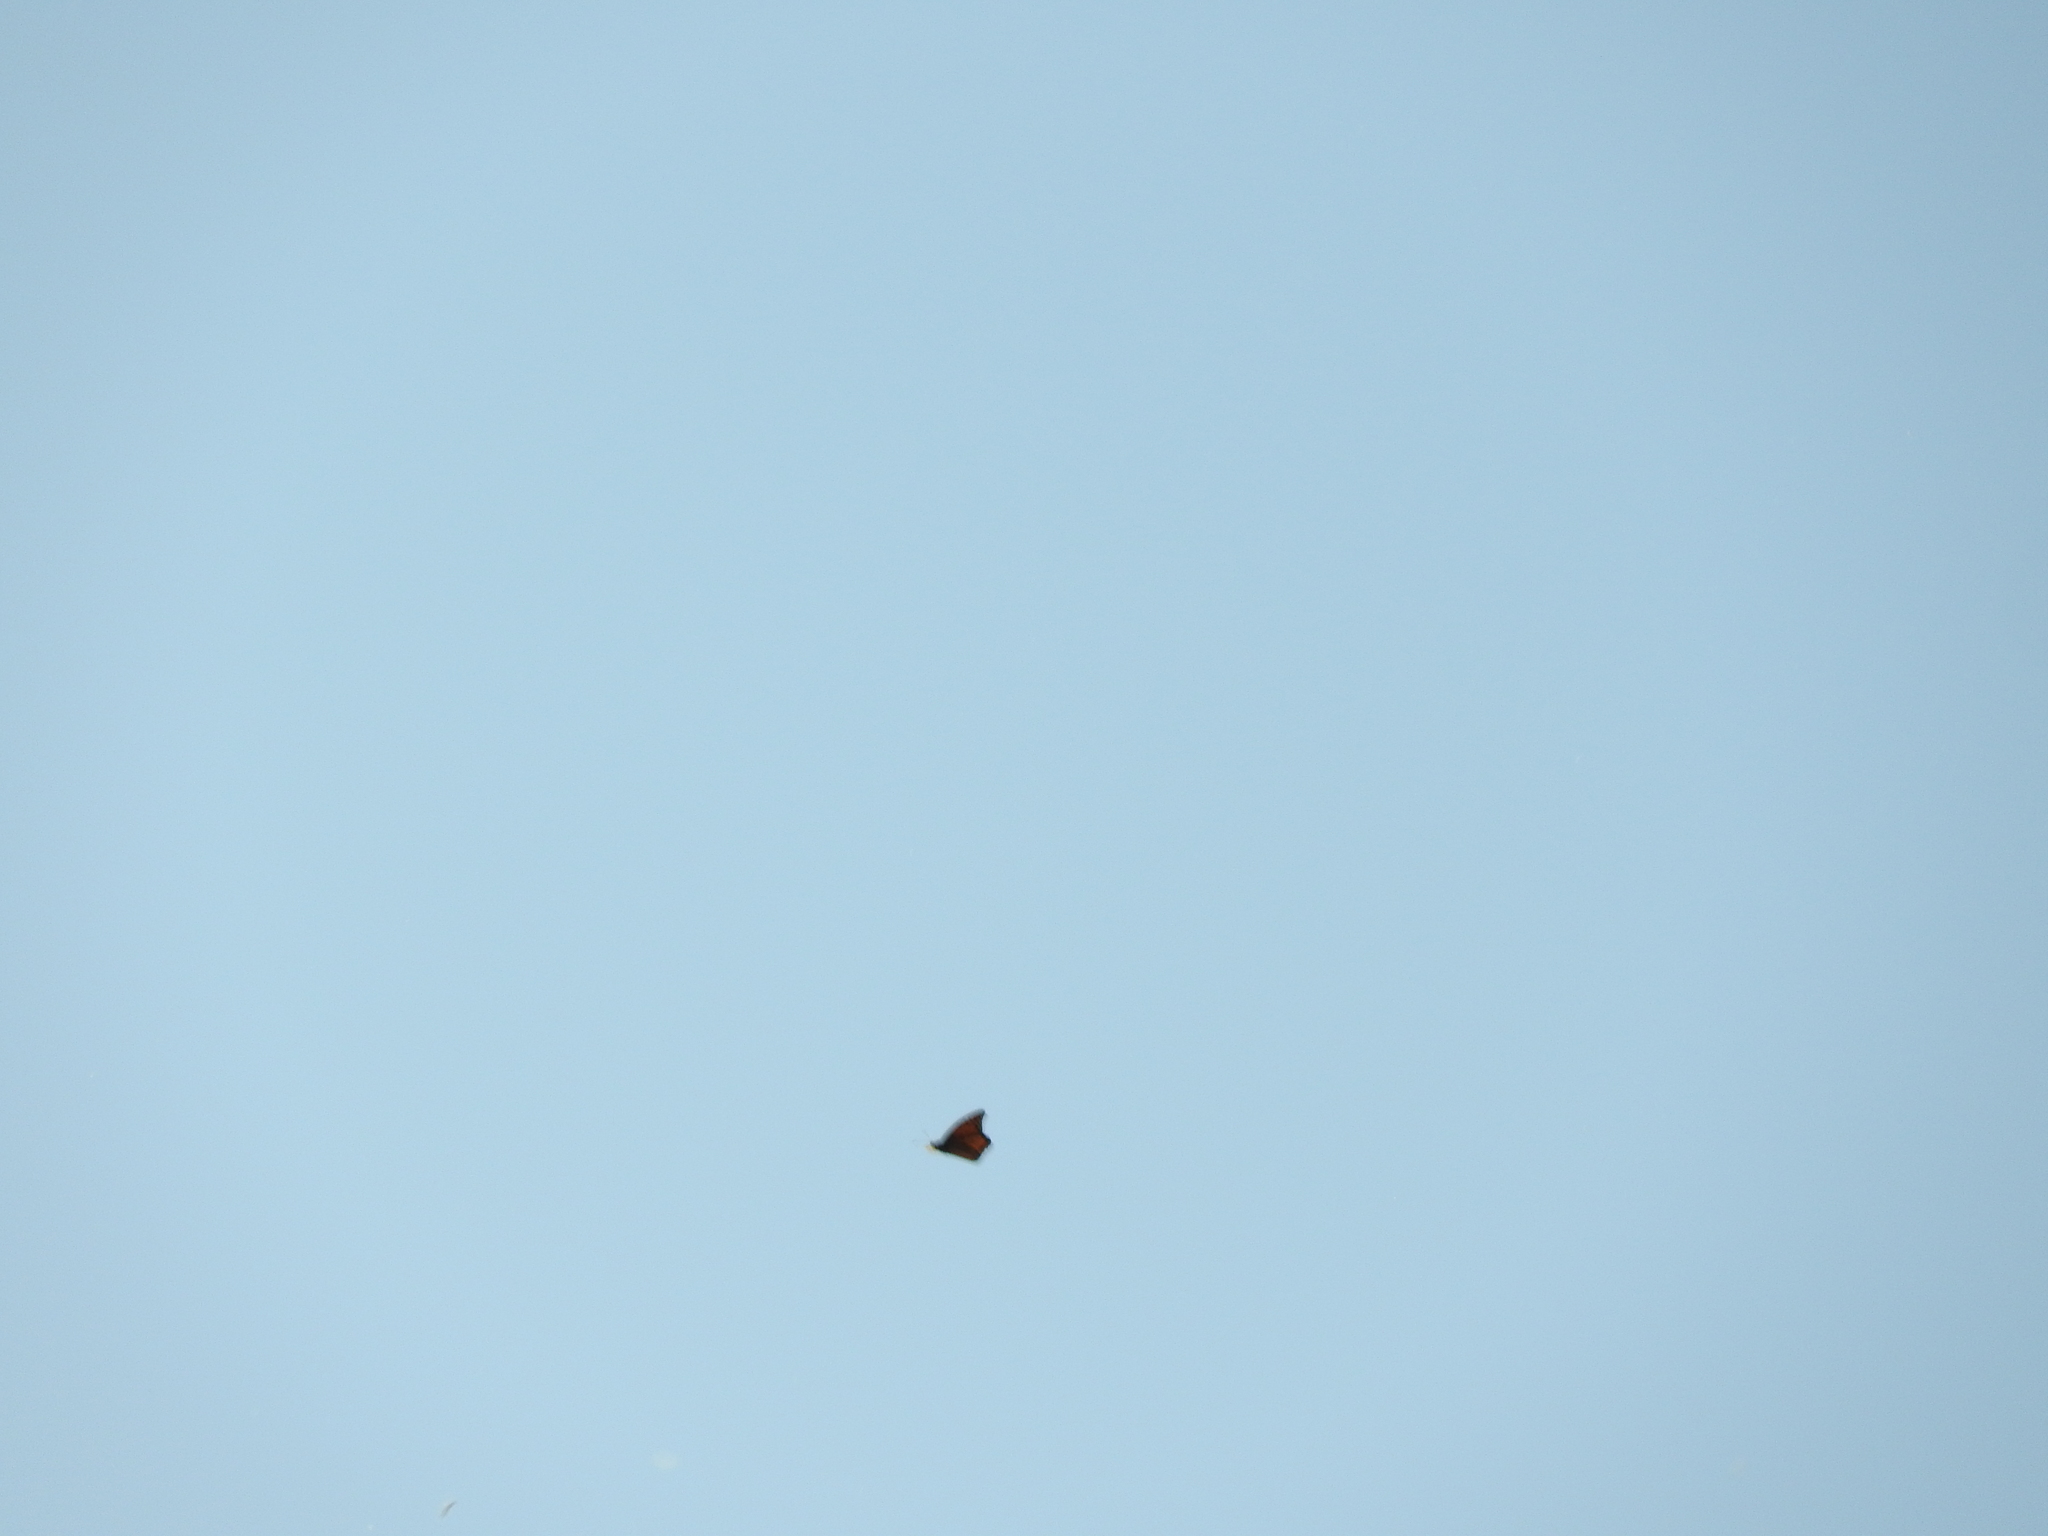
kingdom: Animalia
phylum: Arthropoda
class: Insecta
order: Lepidoptera
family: Nymphalidae
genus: Danaus
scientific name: Danaus plexippus
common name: Monarch
